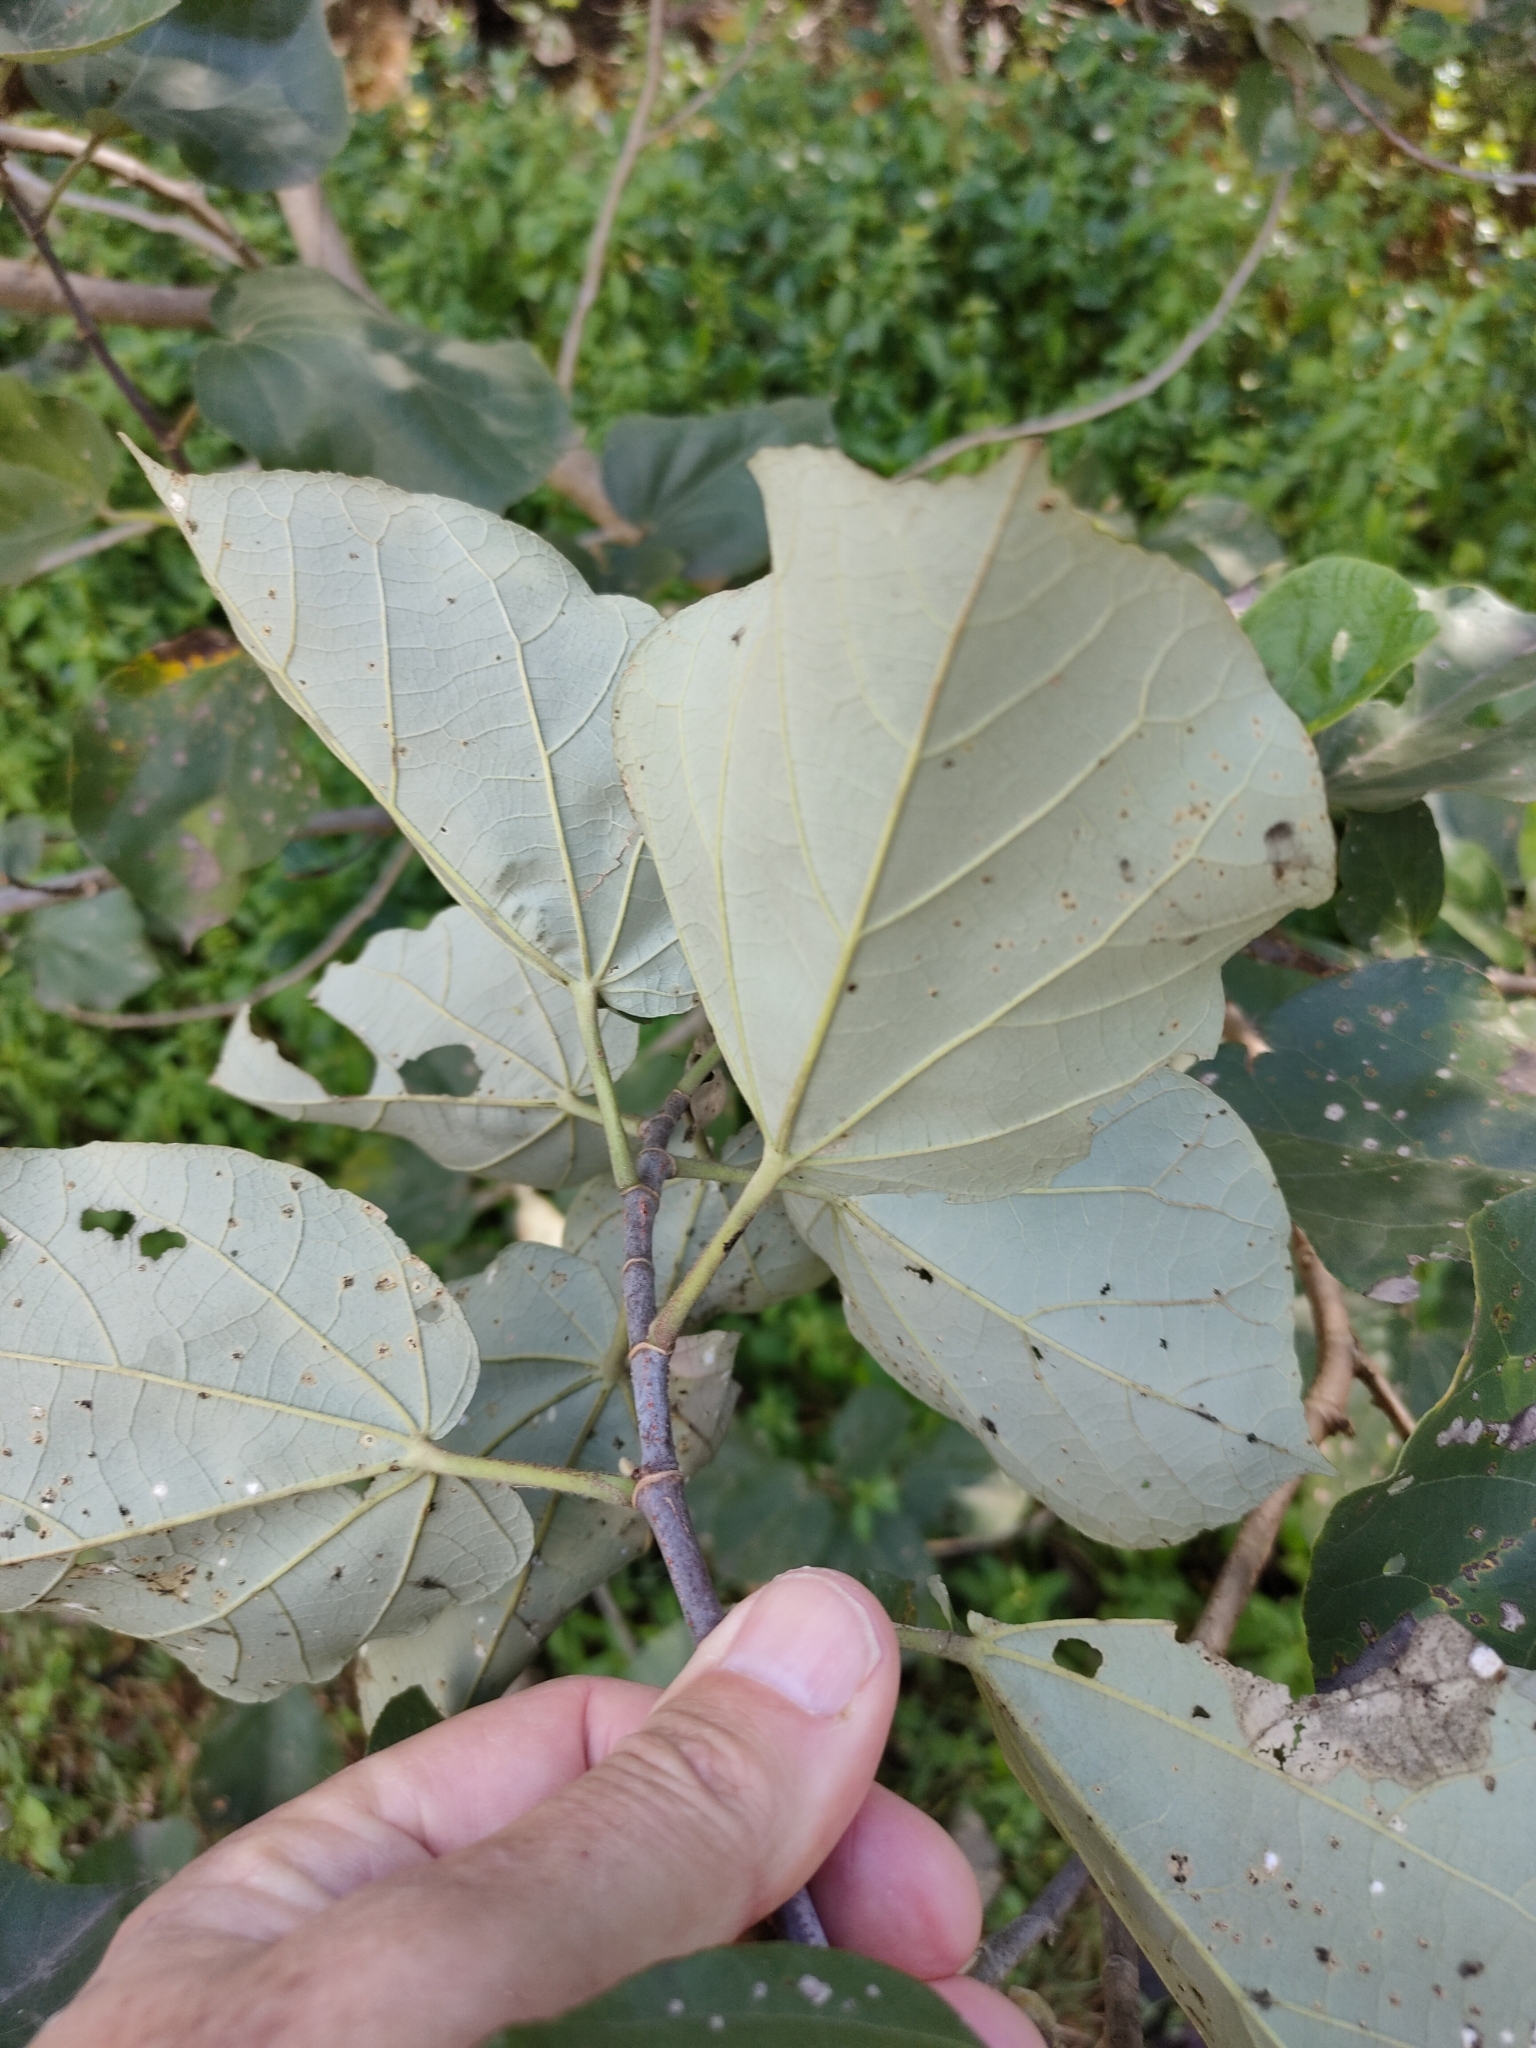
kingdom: Plantae
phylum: Tracheophyta
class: Magnoliopsida
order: Malvales
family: Malvaceae
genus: Talipariti
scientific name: Talipariti tiliaceum
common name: Sea hibiscus
